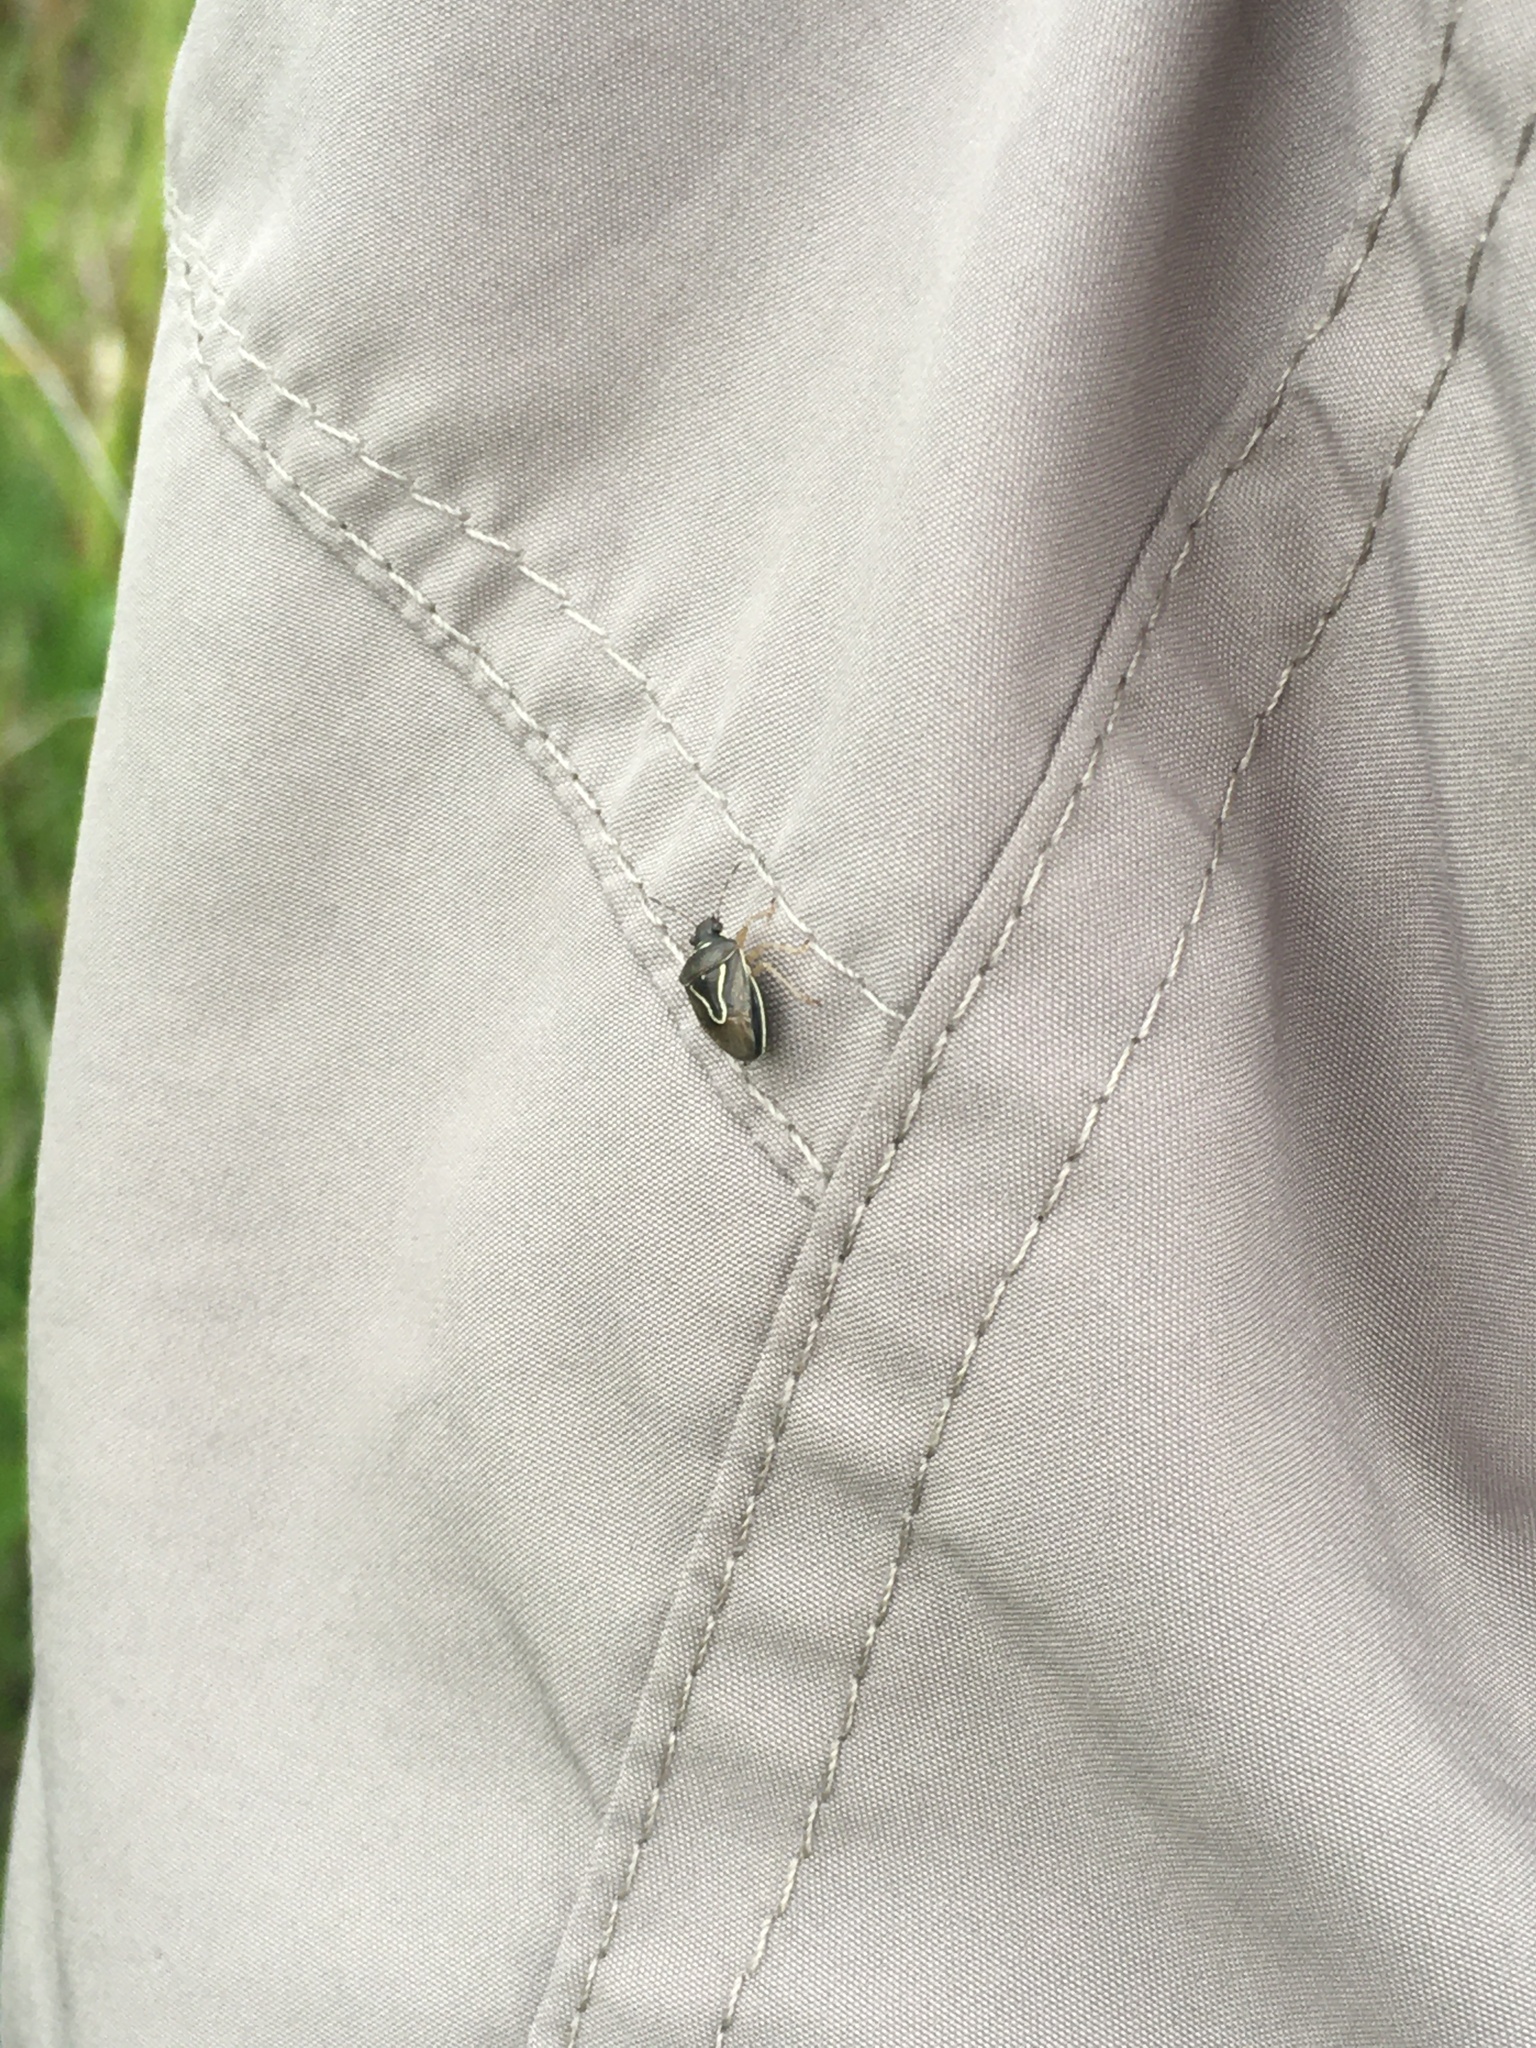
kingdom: Animalia
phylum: Arthropoda
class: Insecta
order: Hemiptera
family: Pentatomidae
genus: Mormidea
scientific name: Mormidea lugens
